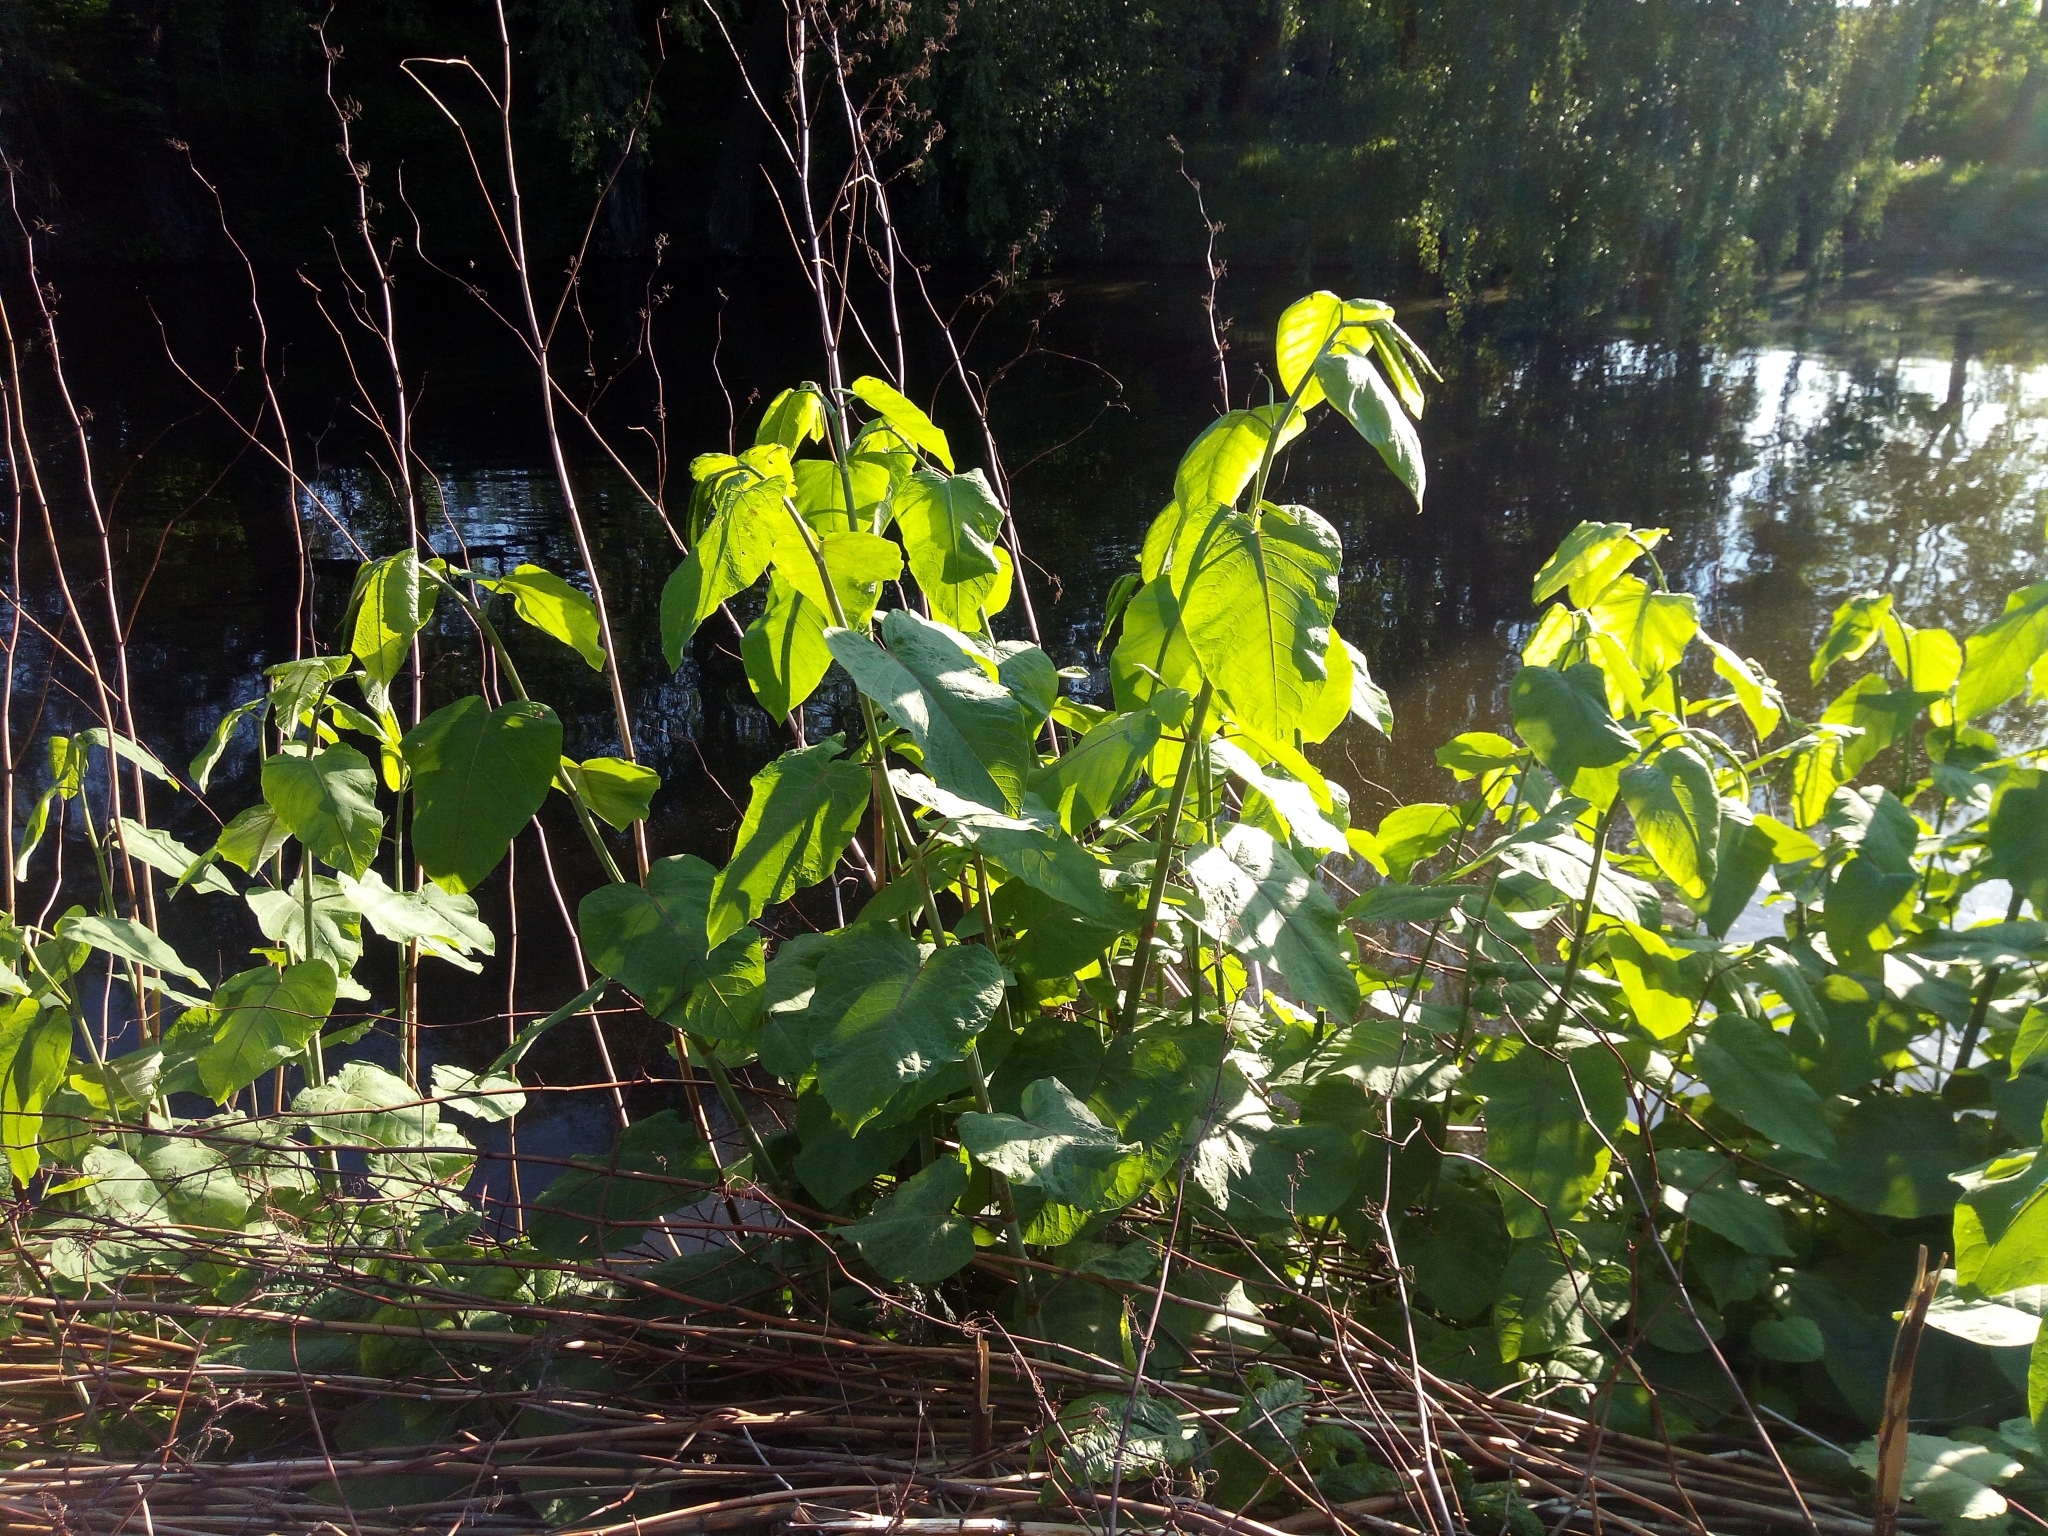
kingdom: Plantae
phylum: Tracheophyta
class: Magnoliopsida
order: Caryophyllales
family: Polygonaceae
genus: Reynoutria
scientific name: Reynoutria sachalinensis
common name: Giant knotweed
